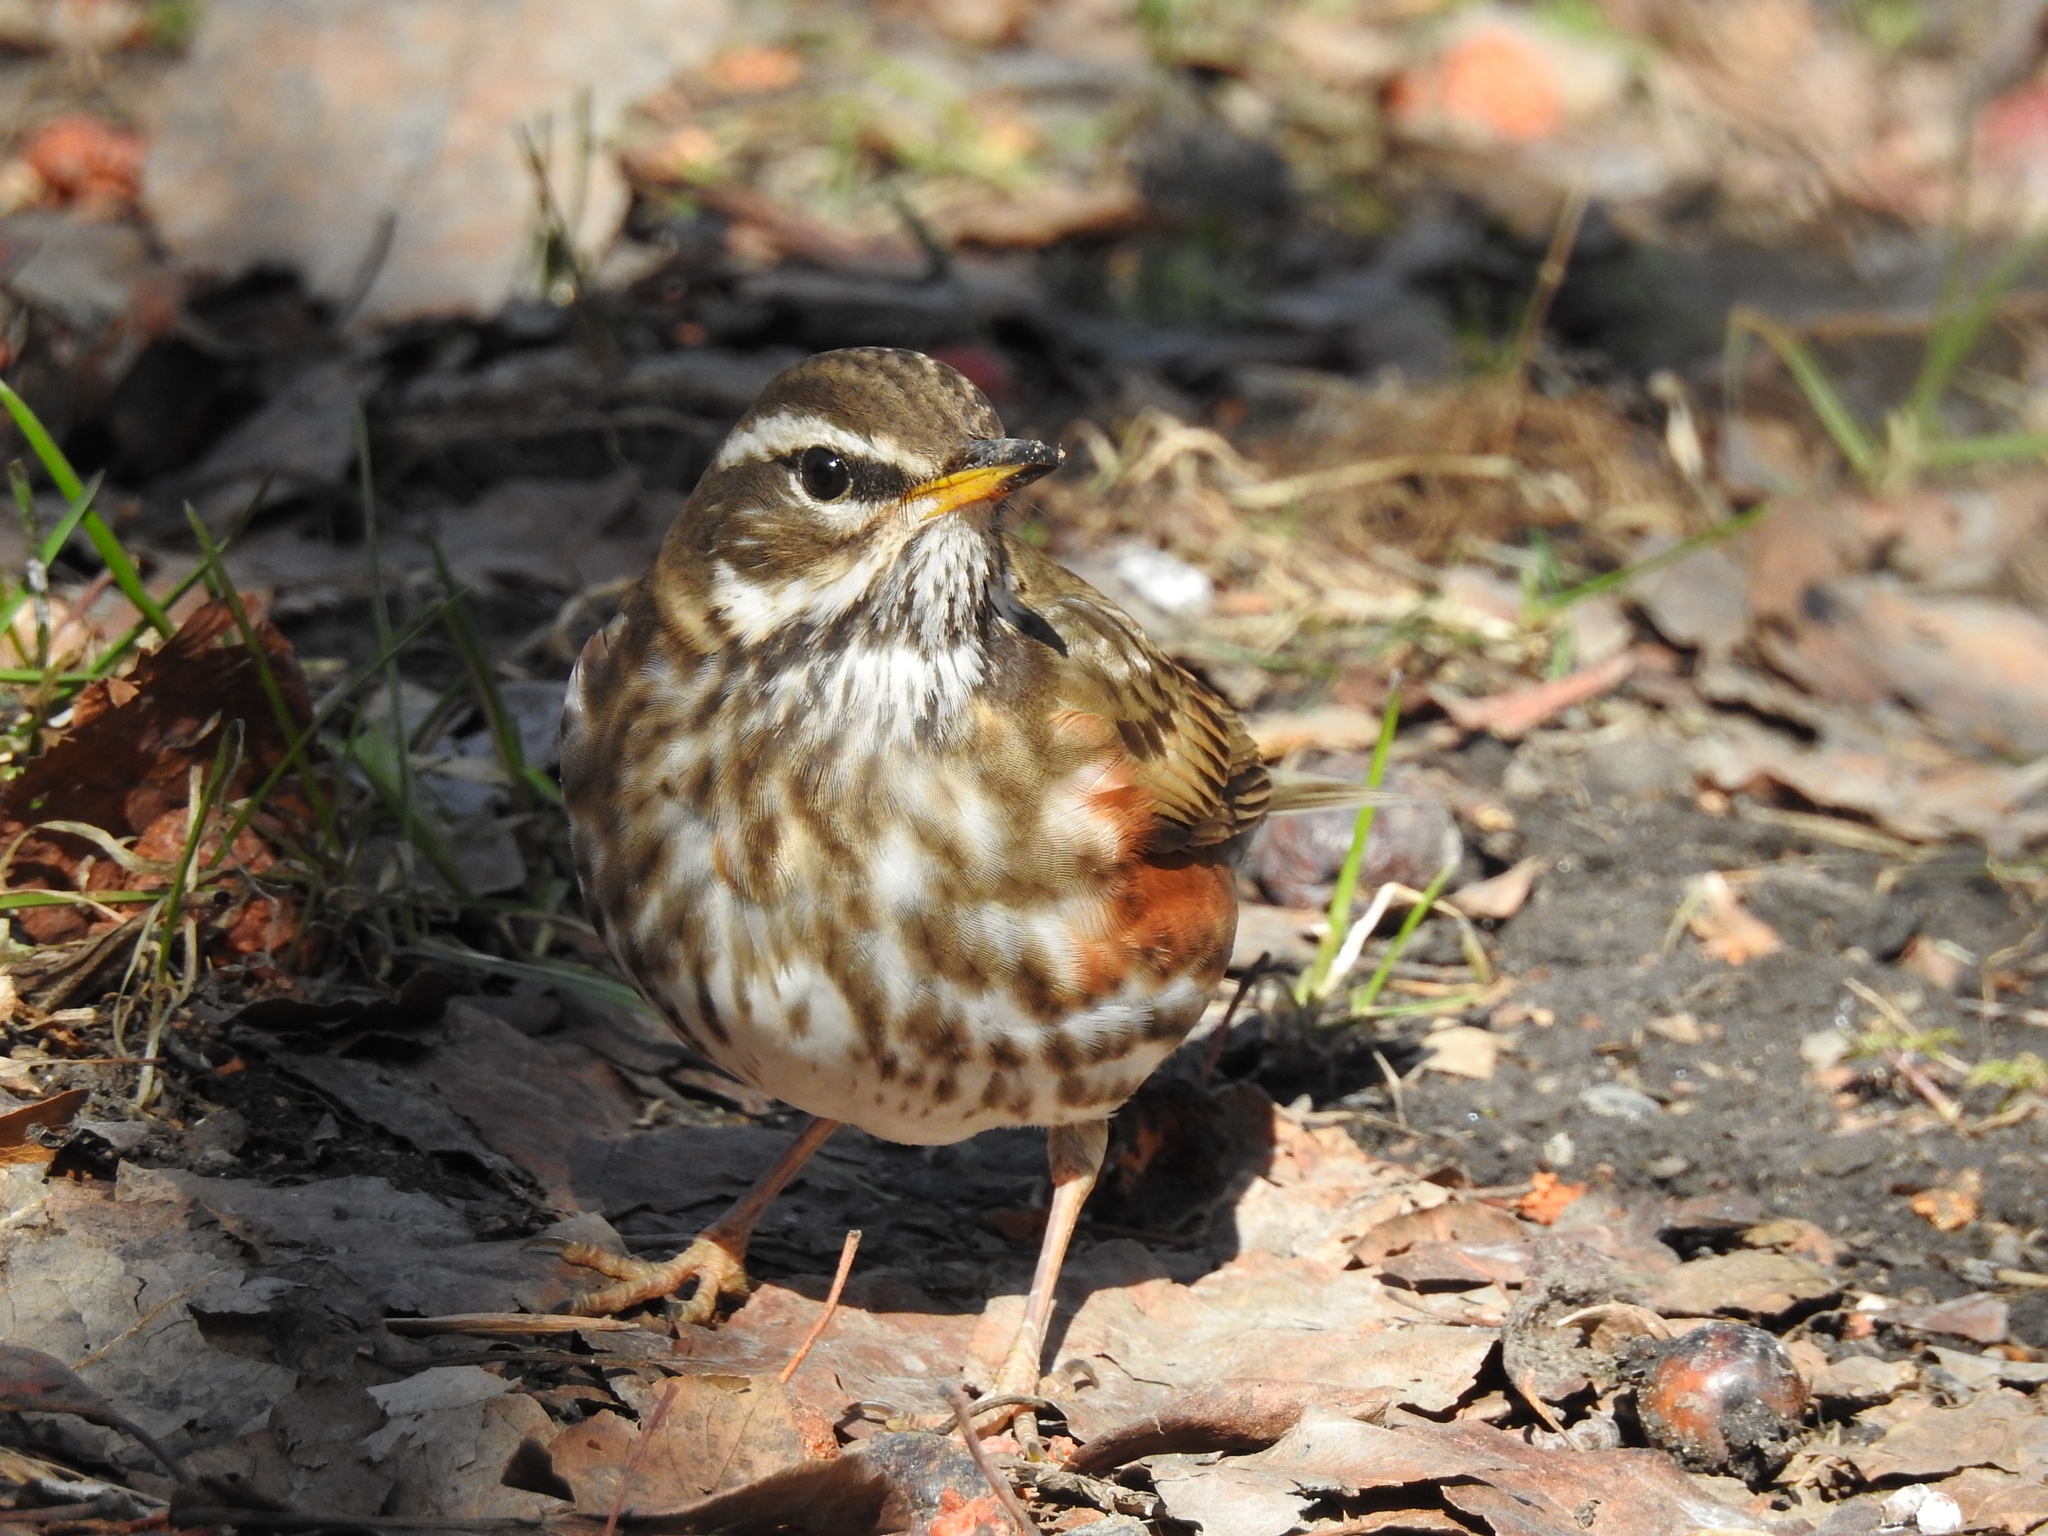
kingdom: Animalia
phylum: Chordata
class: Aves
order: Passeriformes
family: Turdidae
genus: Turdus
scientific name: Turdus iliacus
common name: Redwing
